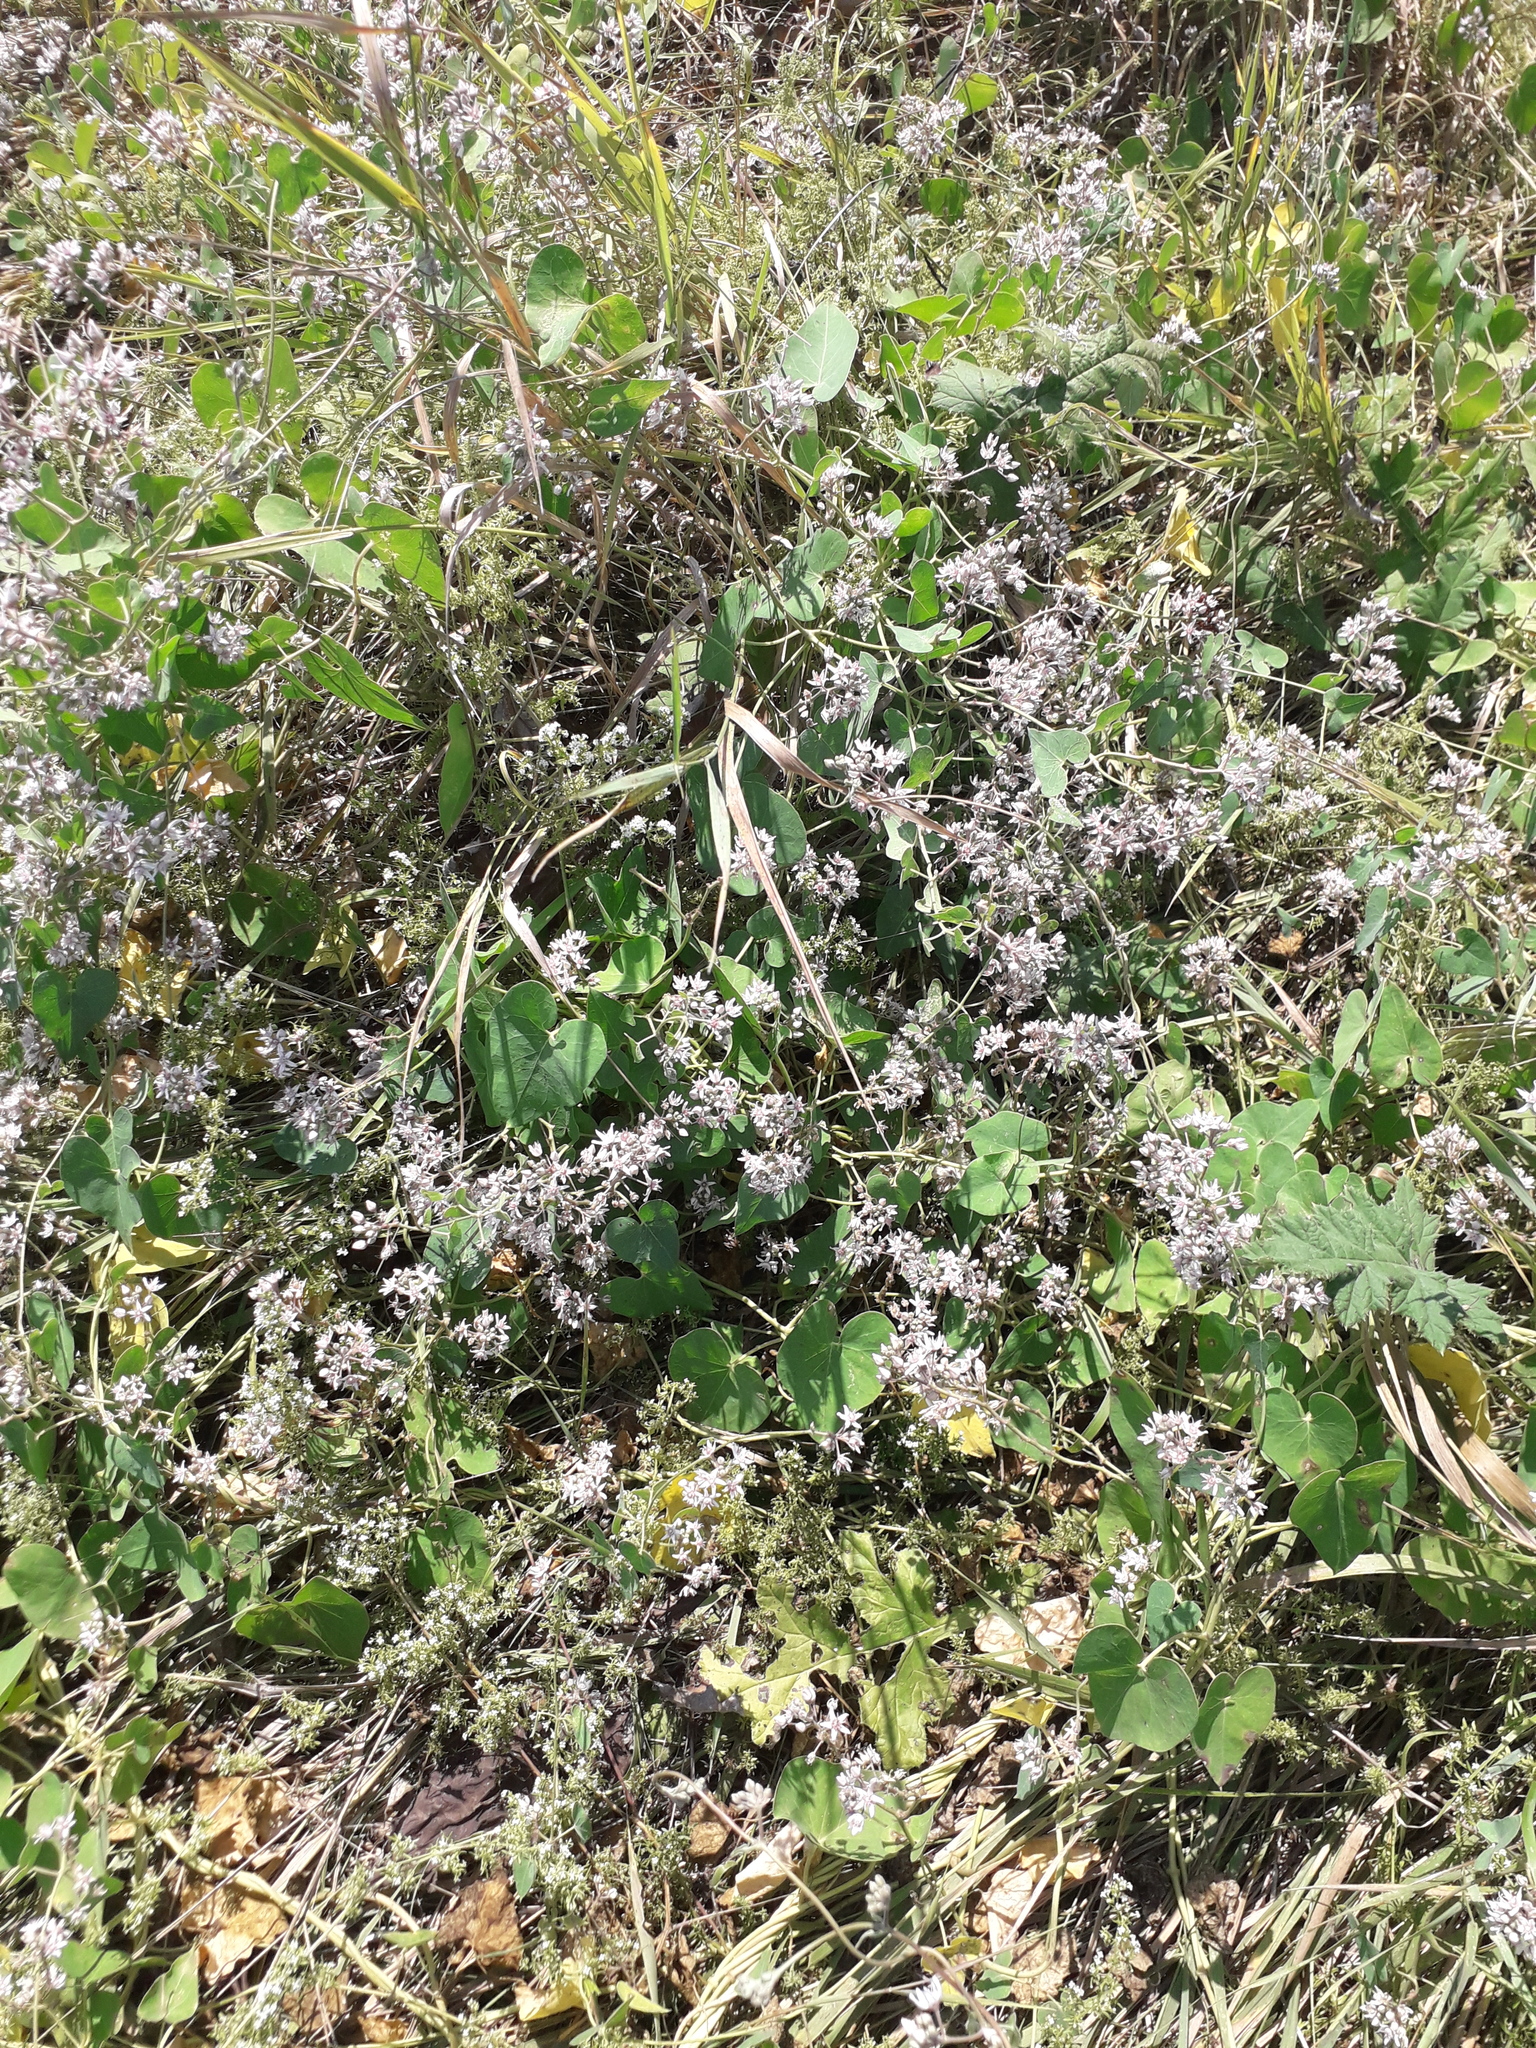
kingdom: Plantae
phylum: Tracheophyta
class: Magnoliopsida
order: Gentianales
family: Apocynaceae
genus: Cynanchum
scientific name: Cynanchum acutum
